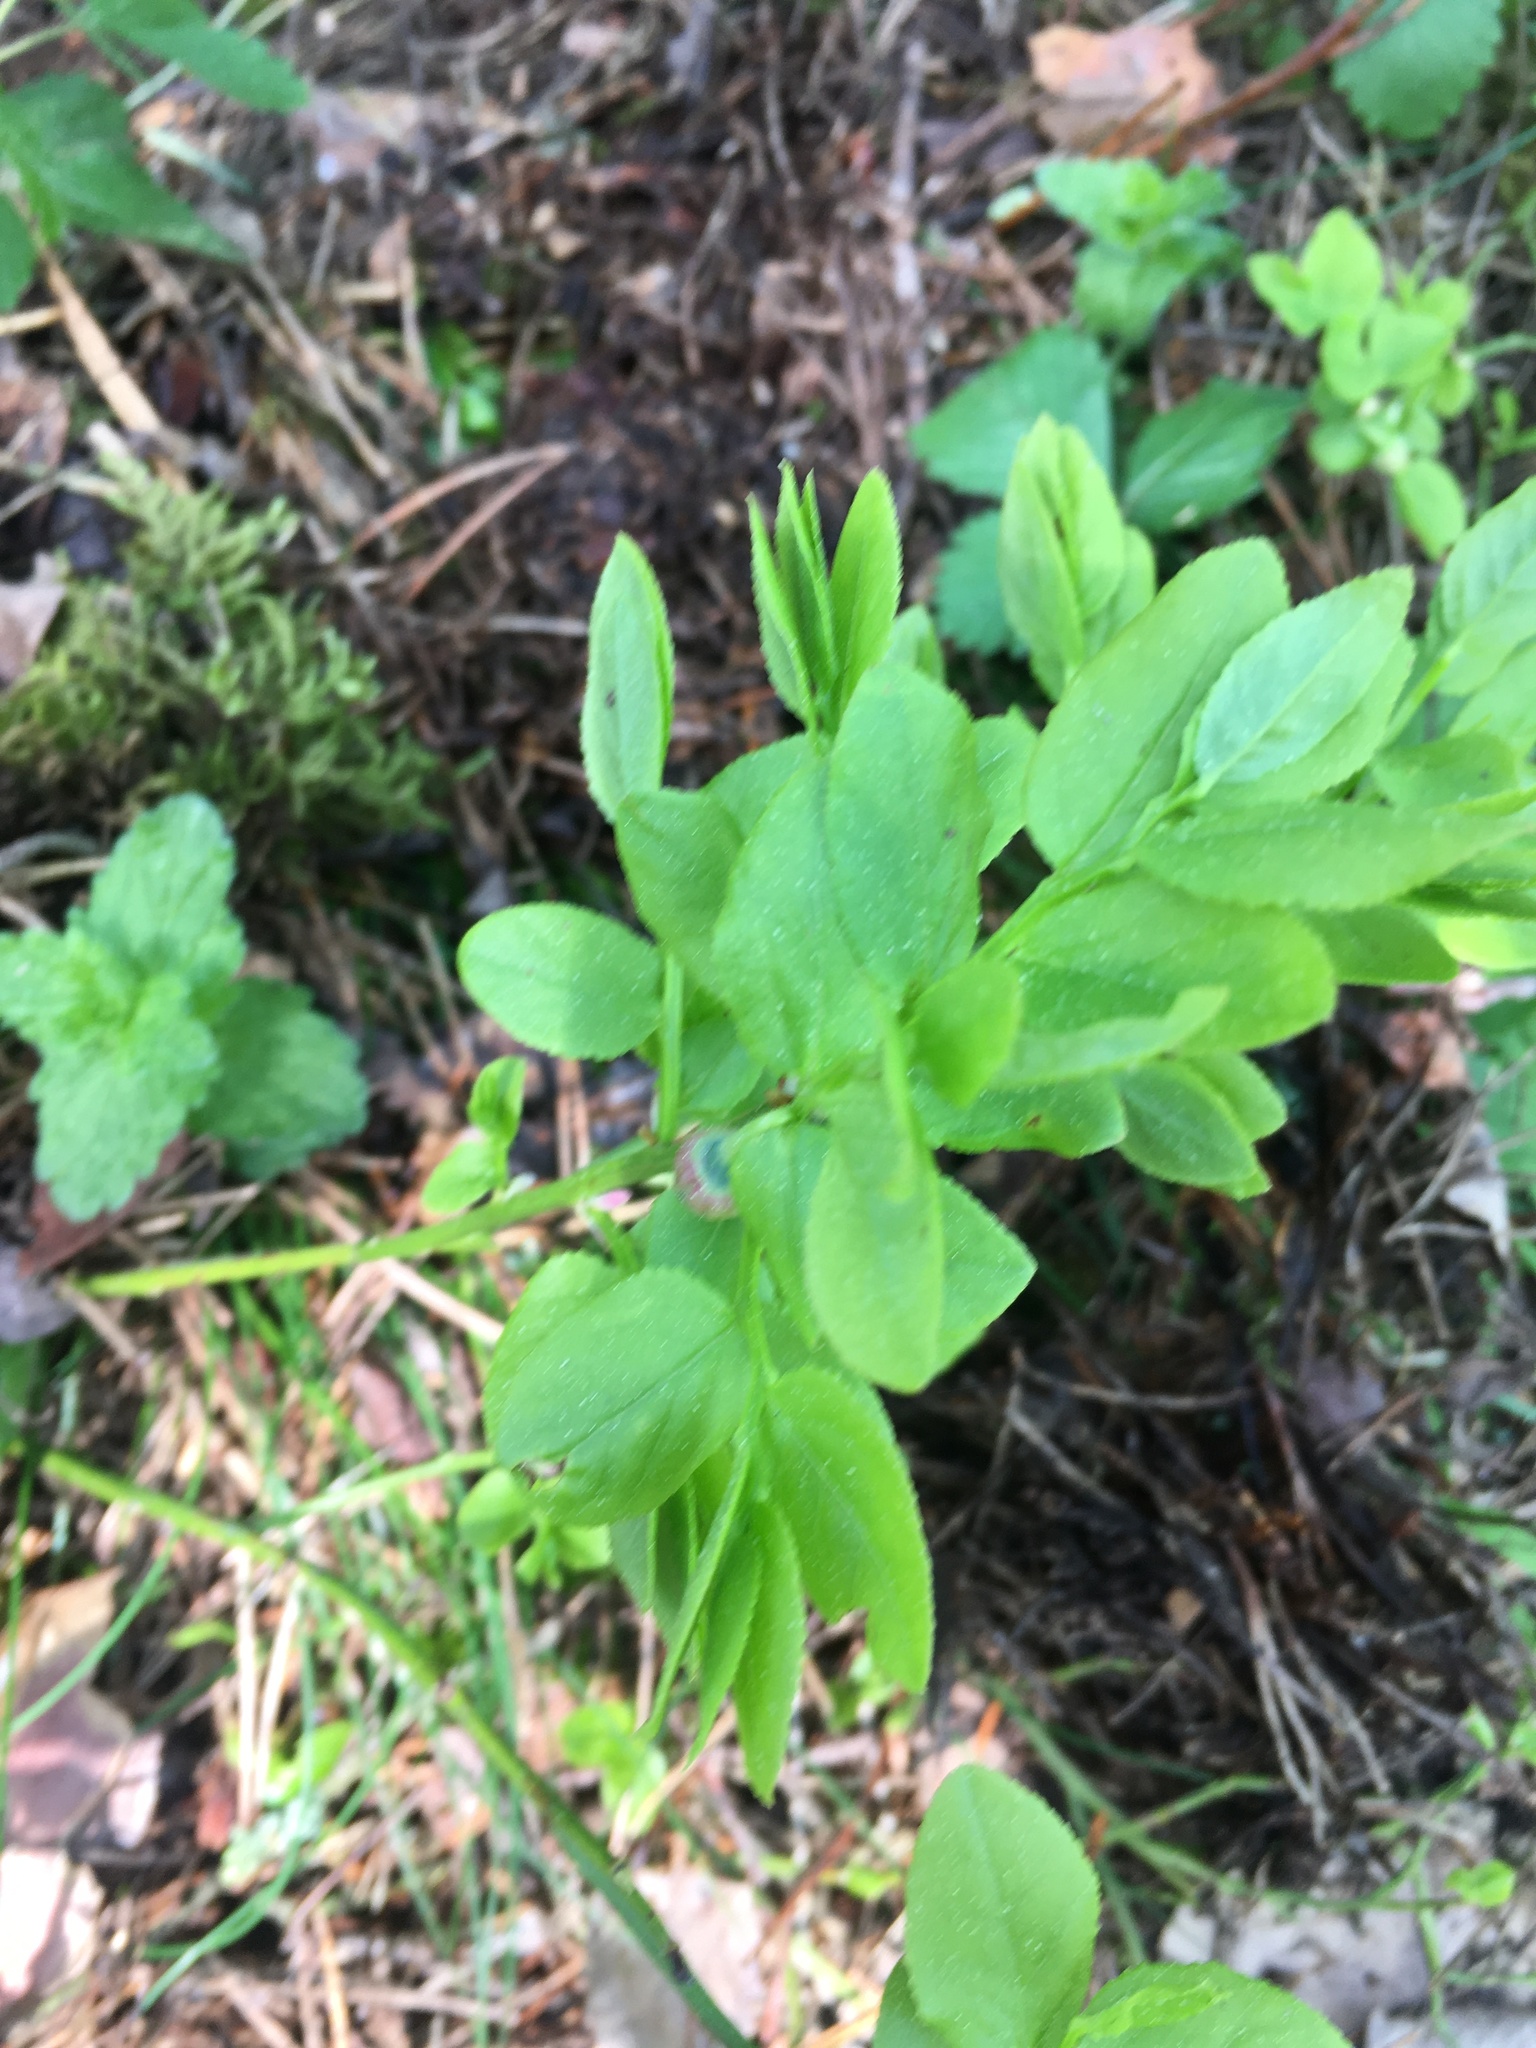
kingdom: Plantae
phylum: Tracheophyta
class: Magnoliopsida
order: Ericales
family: Ericaceae
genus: Vaccinium
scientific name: Vaccinium myrtillus
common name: Bilberry
